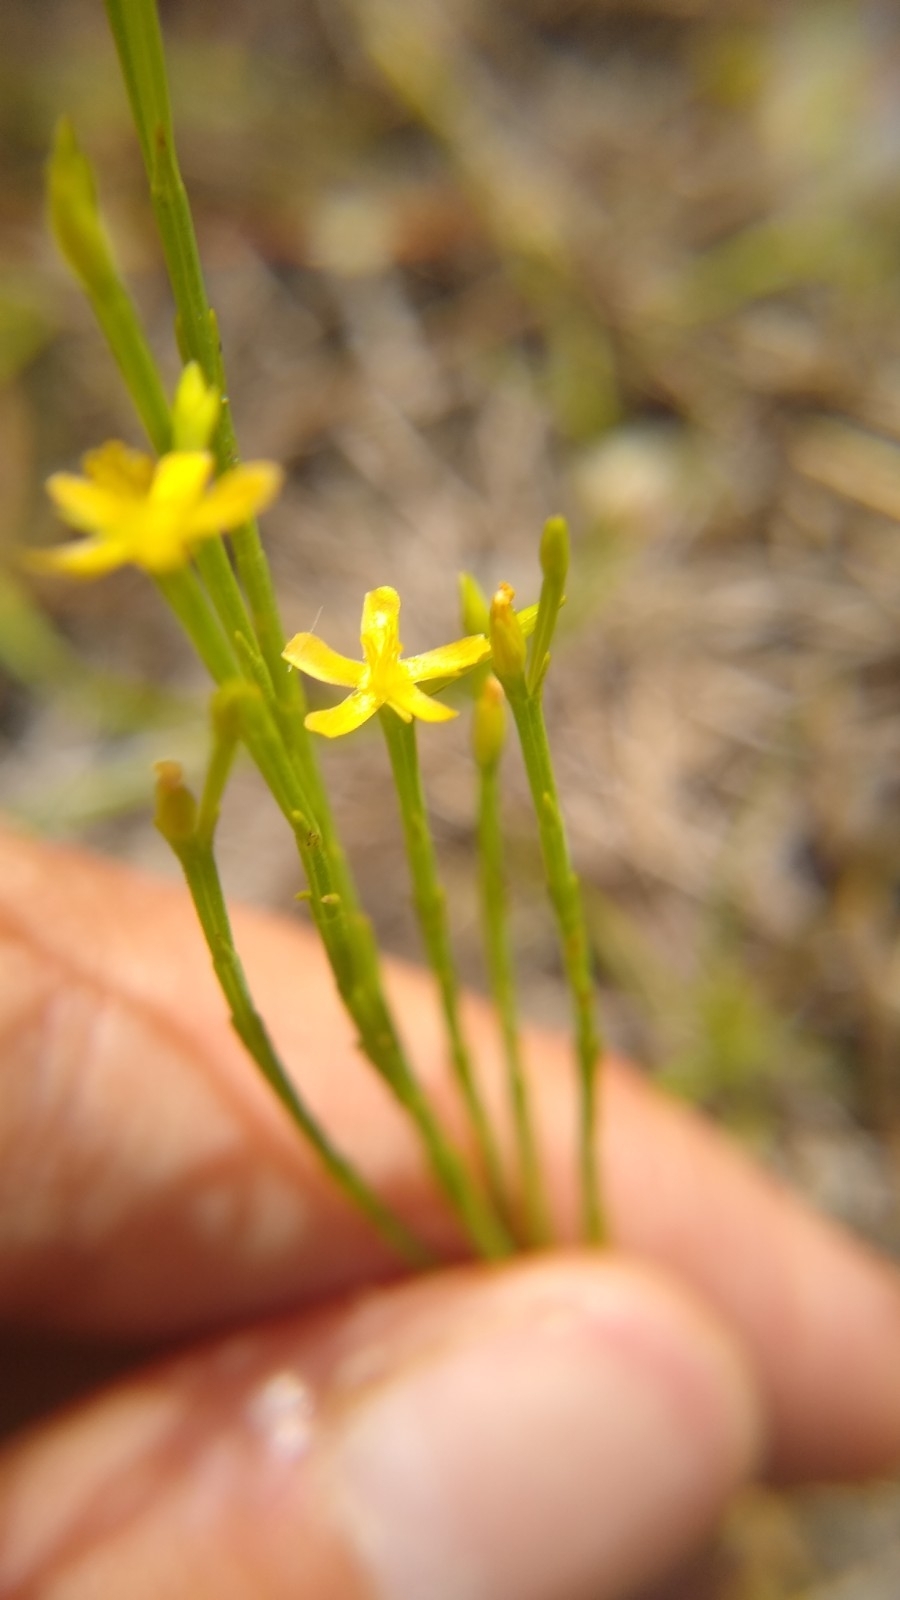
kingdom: Plantae
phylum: Tracheophyta
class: Magnoliopsida
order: Malpighiales
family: Hypericaceae
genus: Hypericum
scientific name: Hypericum gentianoides
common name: Gentian-leaved st. john's-wort
